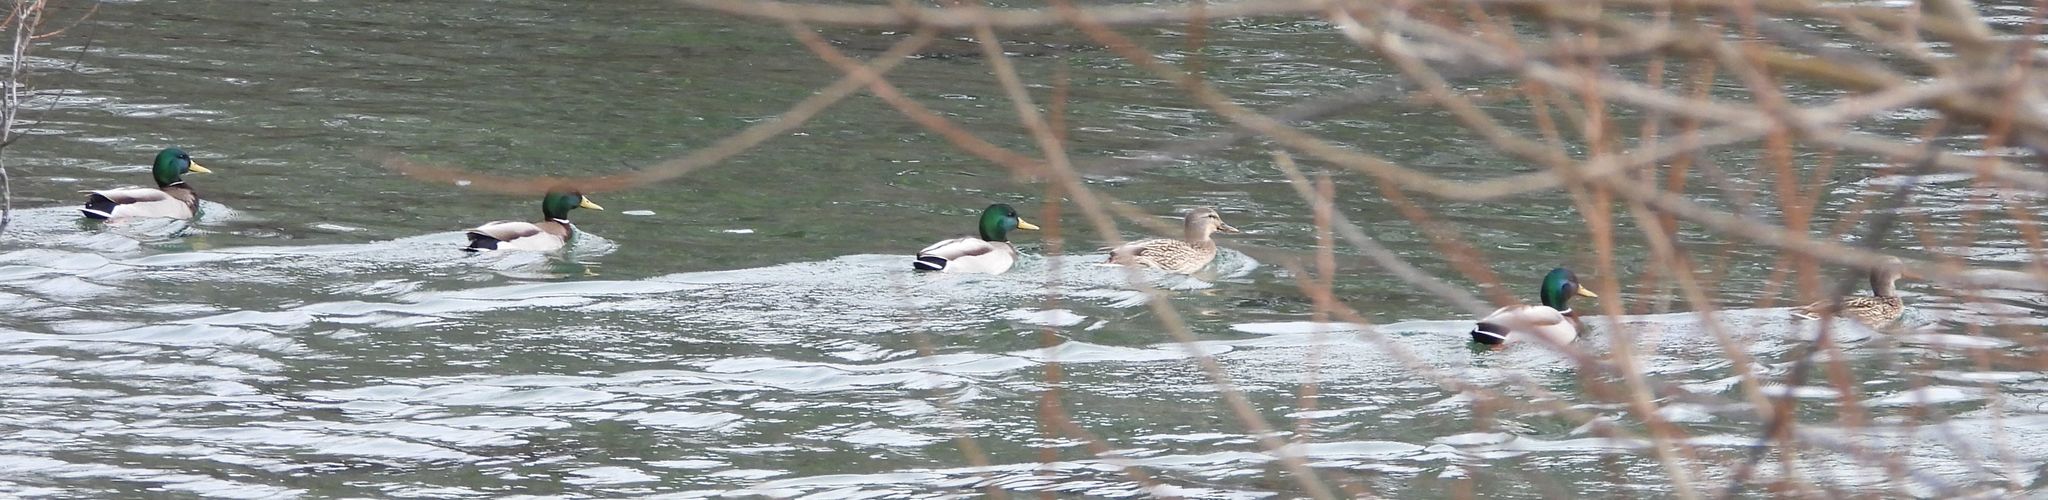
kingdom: Animalia
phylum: Chordata
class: Aves
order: Anseriformes
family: Anatidae
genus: Anas
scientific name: Anas platyrhynchos
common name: Mallard
